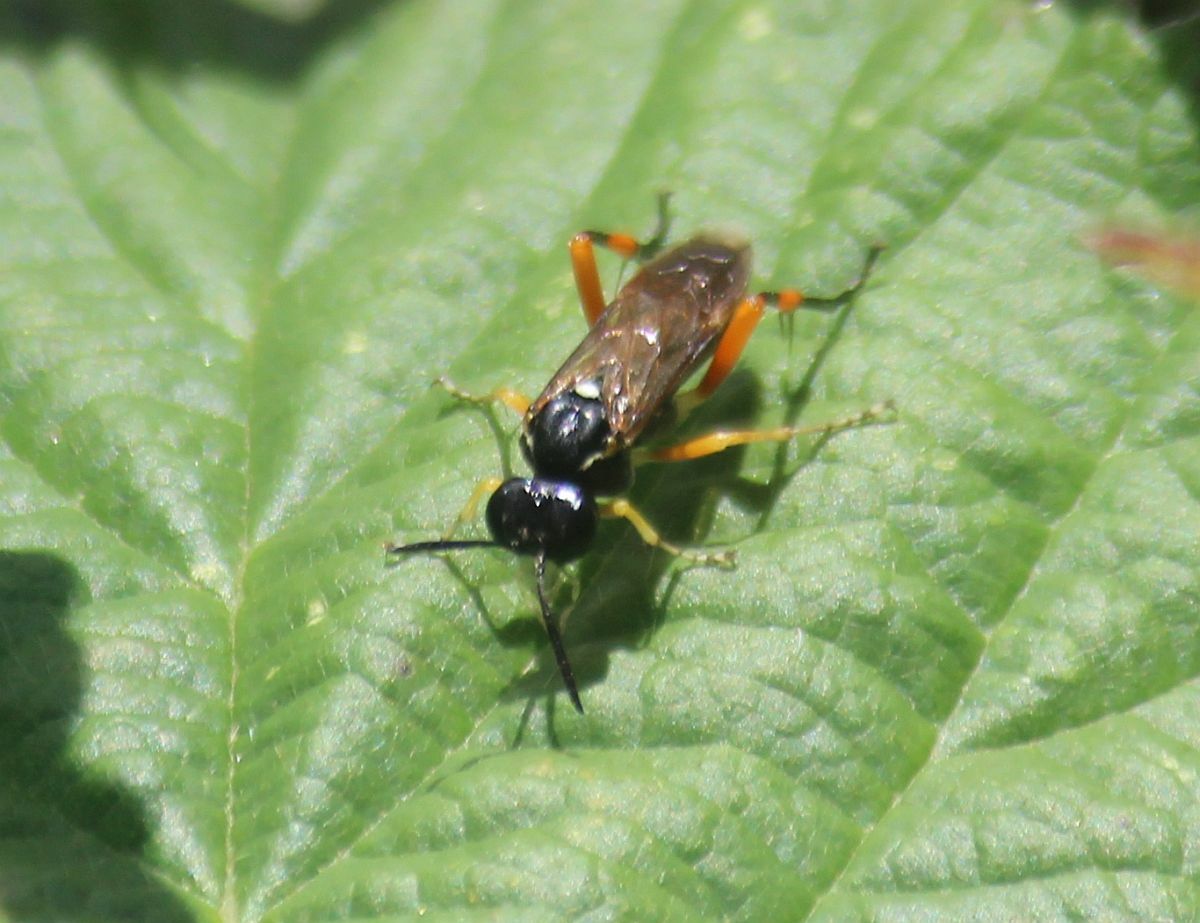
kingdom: Animalia
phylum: Arthropoda
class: Insecta
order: Hymenoptera
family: Tenthredinidae
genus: Macrophya
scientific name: Macrophya rufipes
